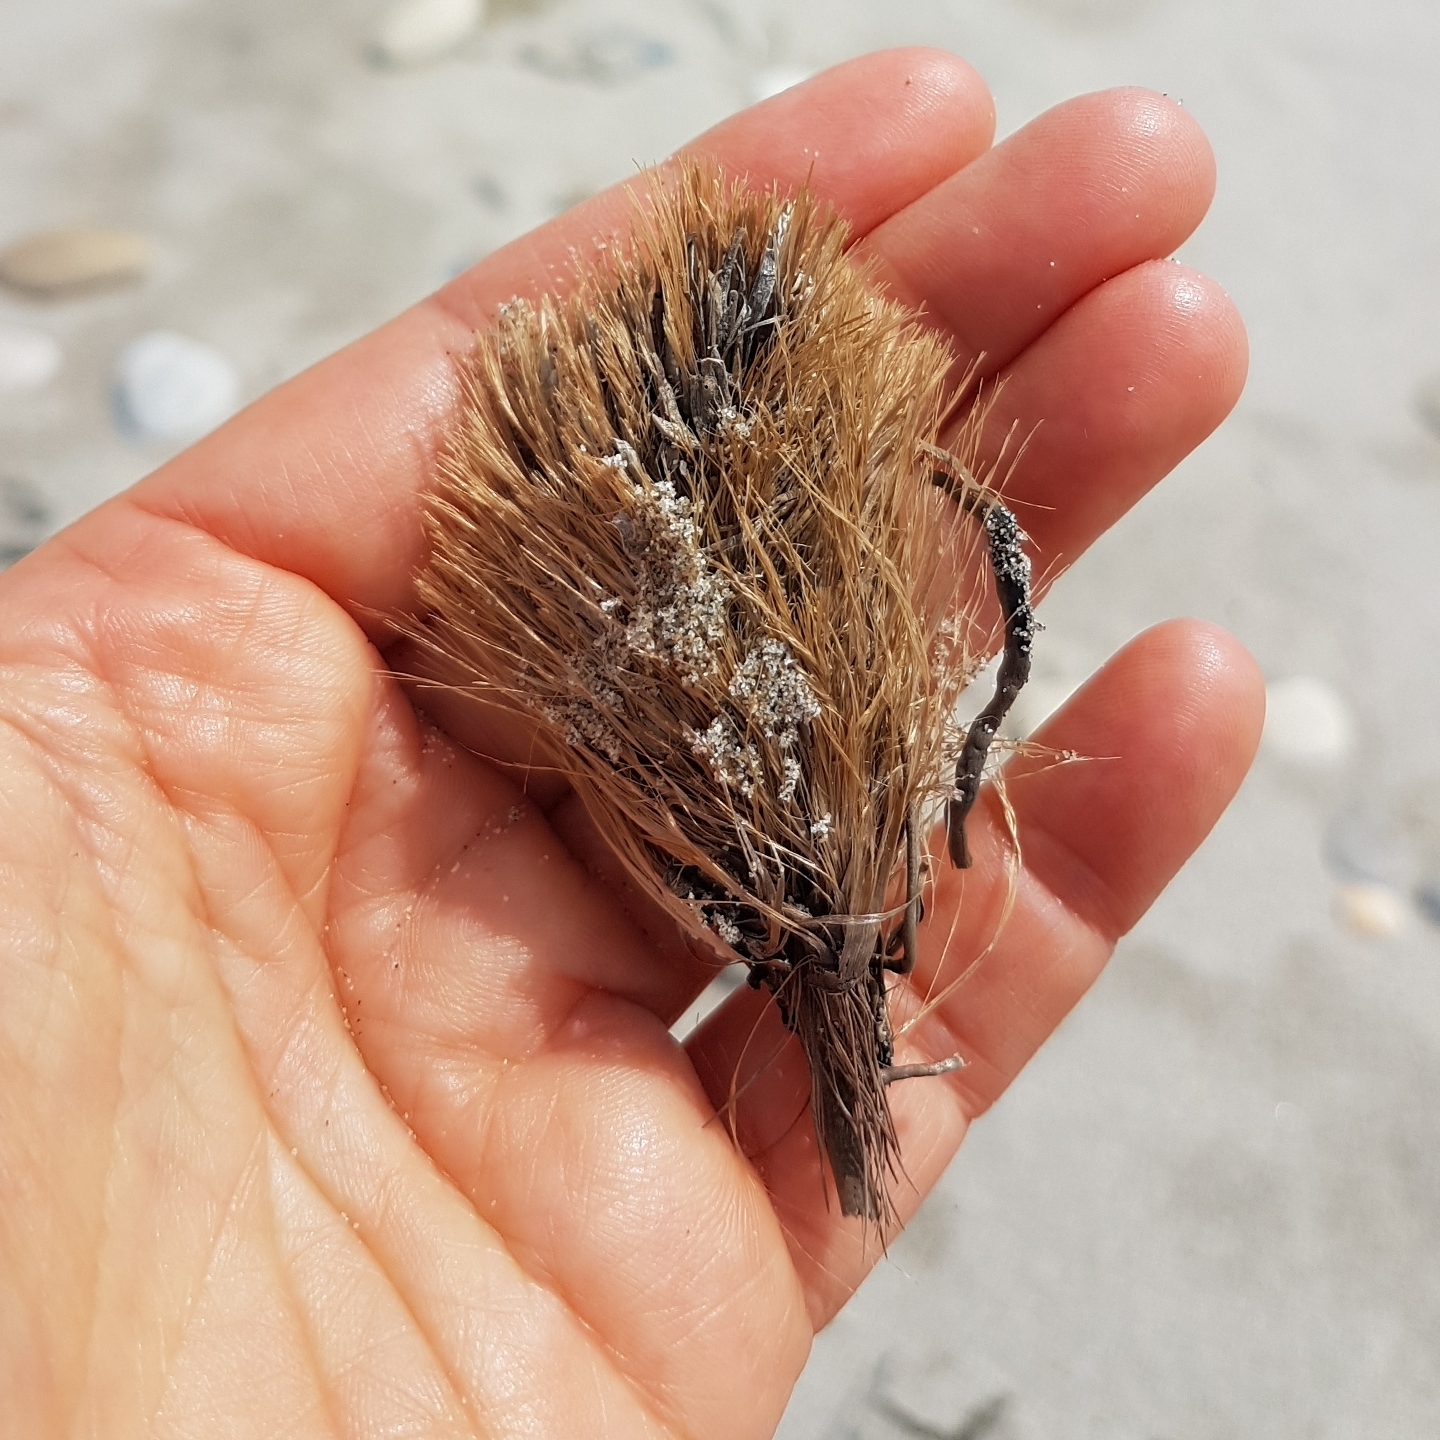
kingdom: Plantae
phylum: Tracheophyta
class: Liliopsida
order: Alismatales
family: Posidoniaceae
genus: Posidonia
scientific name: Posidonia oceanica
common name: Mediterranean tapeweed
